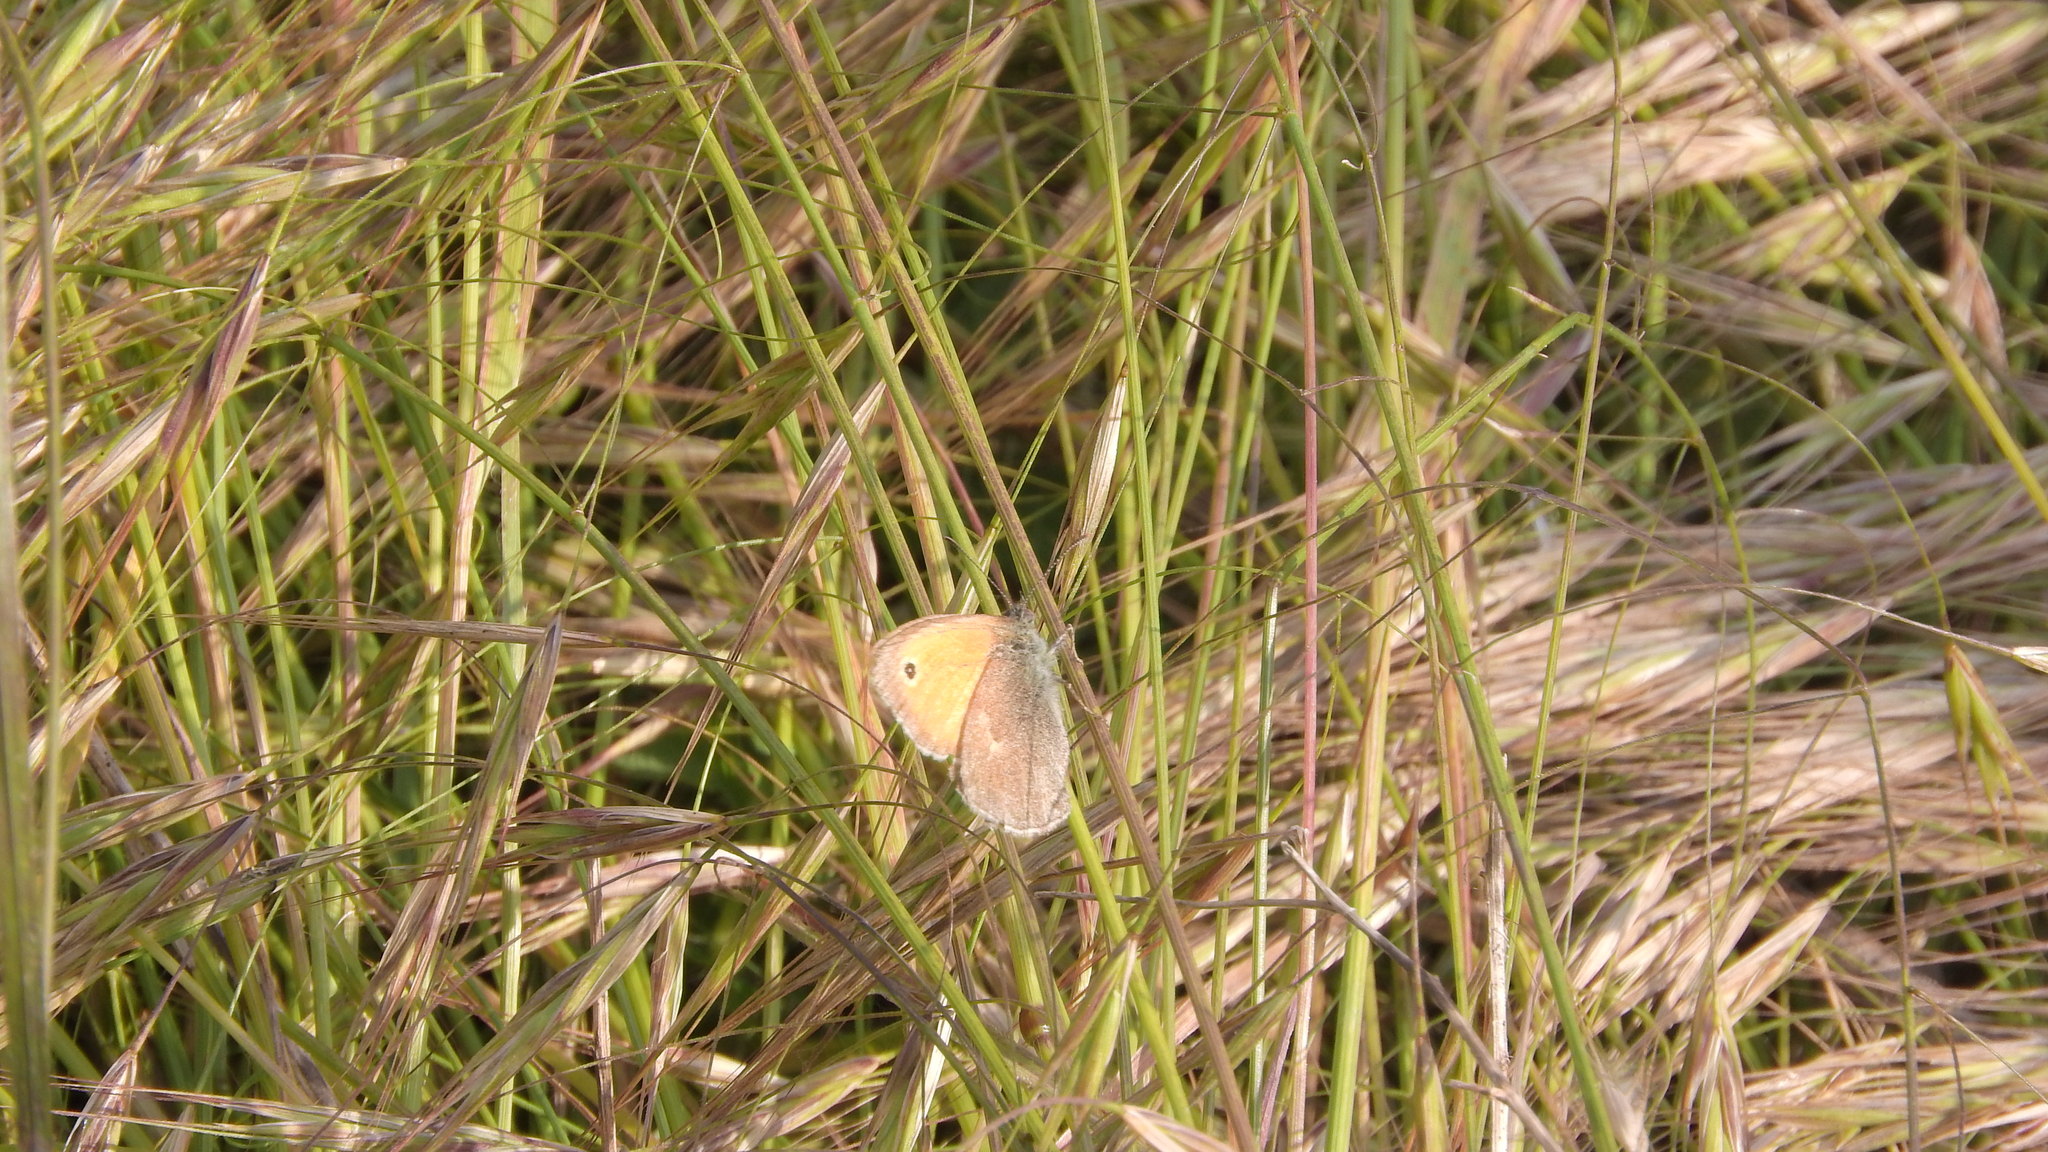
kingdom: Animalia
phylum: Arthropoda
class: Insecta
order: Lepidoptera
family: Nymphalidae
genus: Coenonympha
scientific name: Coenonympha pamphilus
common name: Small heath
